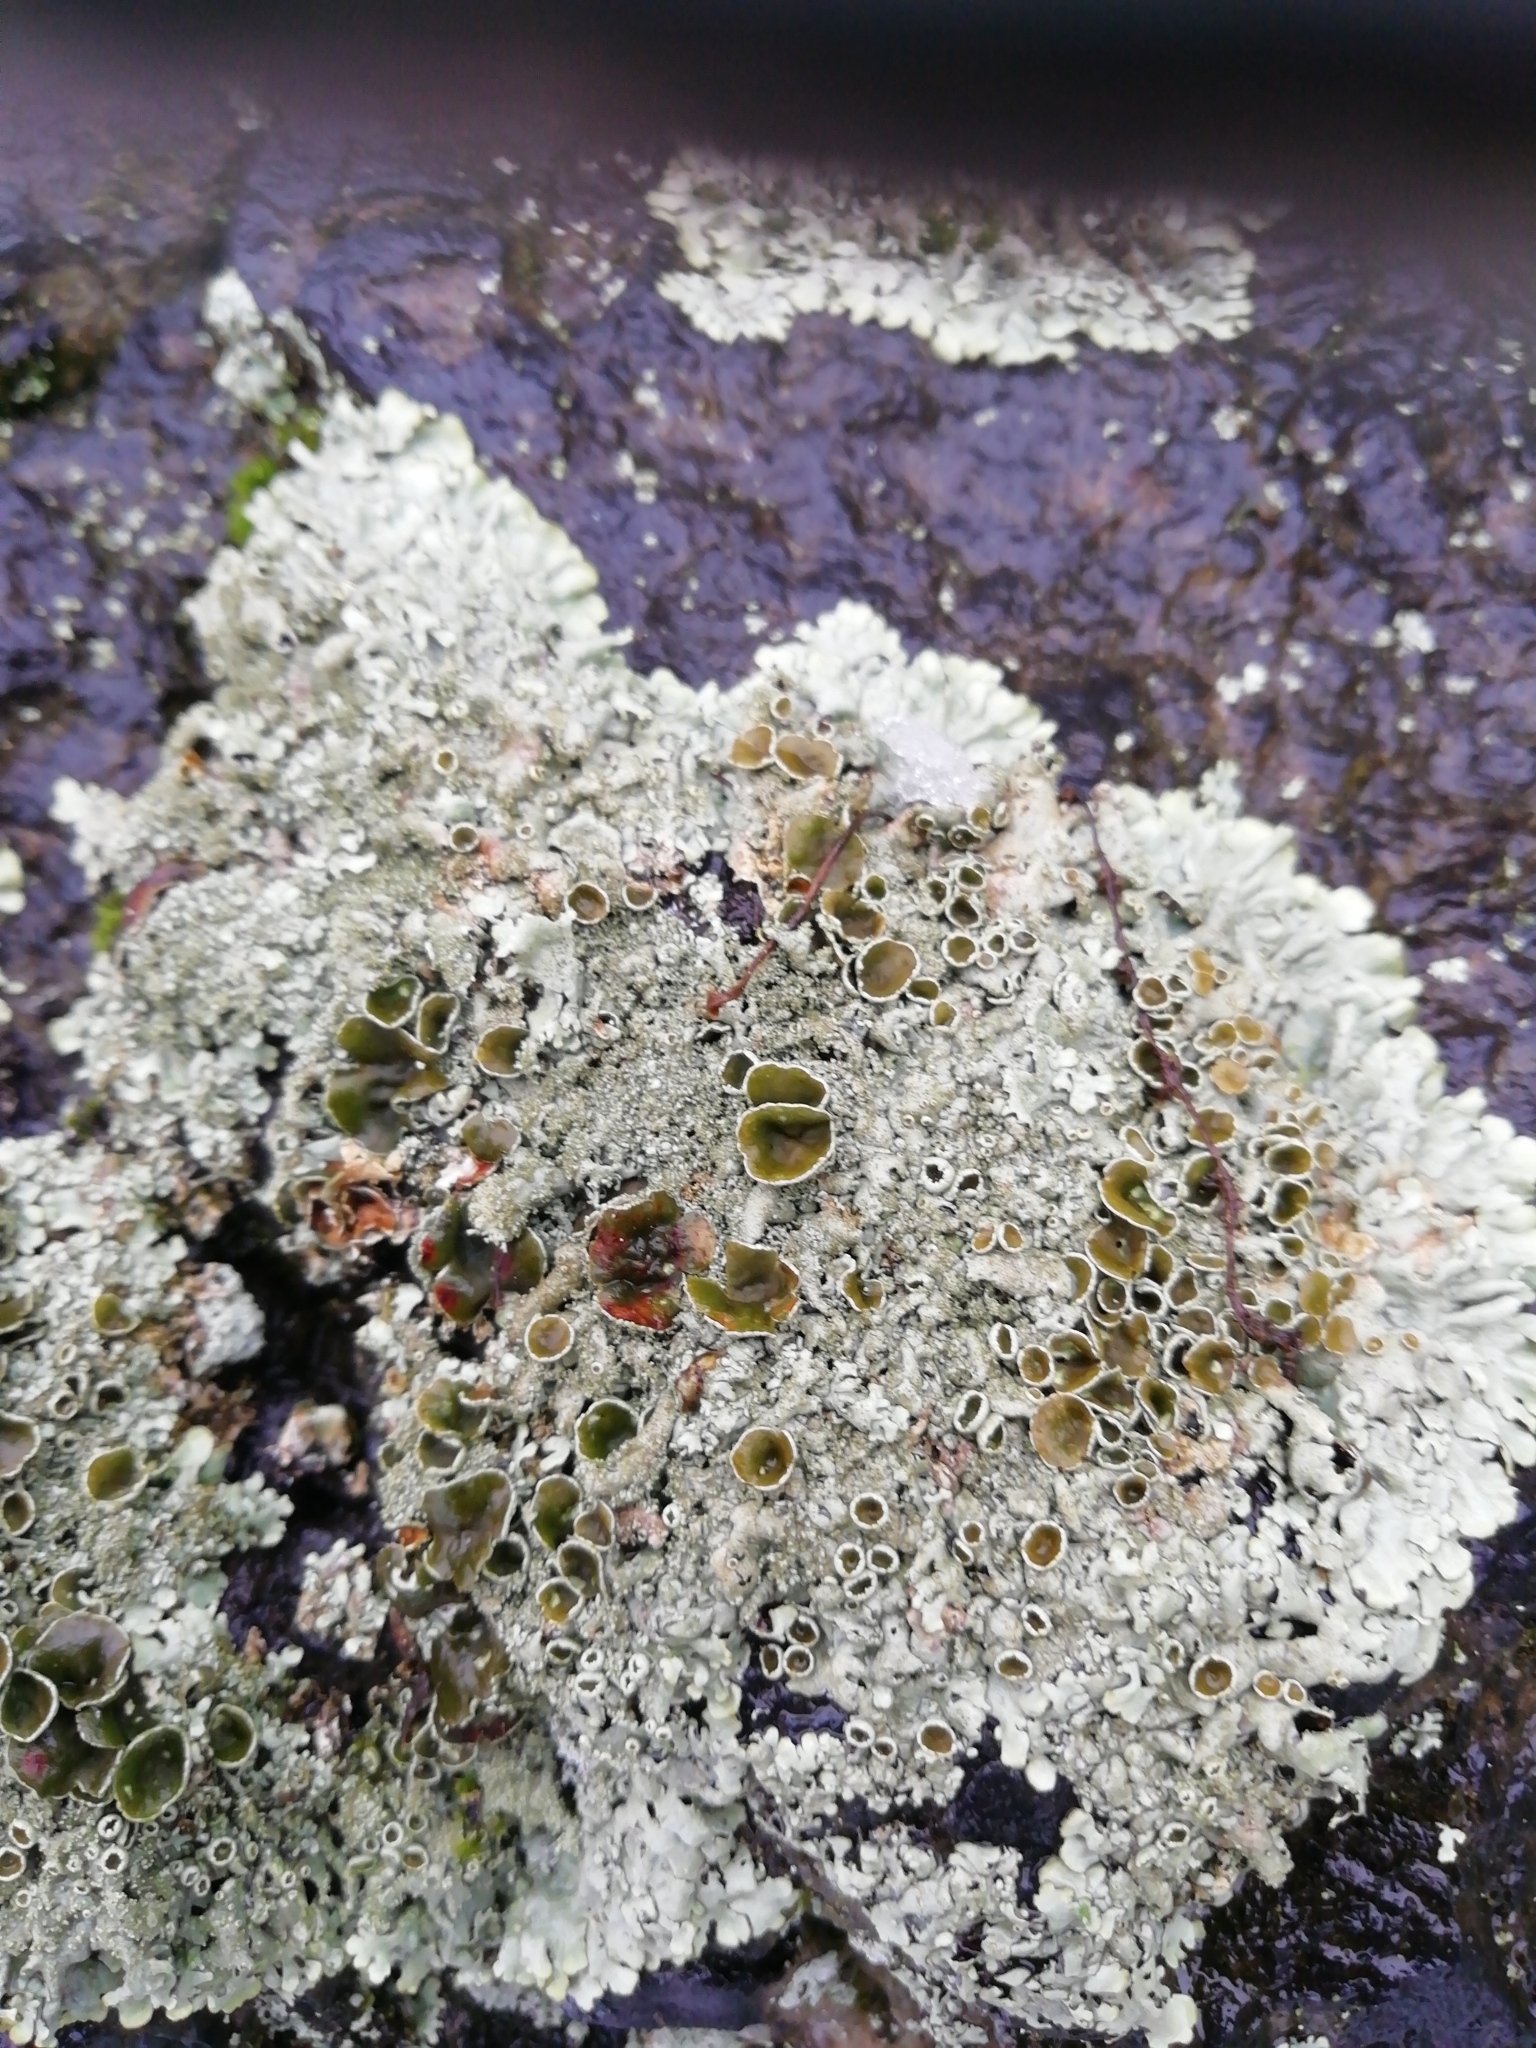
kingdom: Fungi
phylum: Ascomycota
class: Lecanoromycetes
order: Lecanorales
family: Parmeliaceae
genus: Xanthoparmelia
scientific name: Xanthoparmelia conspersa
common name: Peppered rock shield
